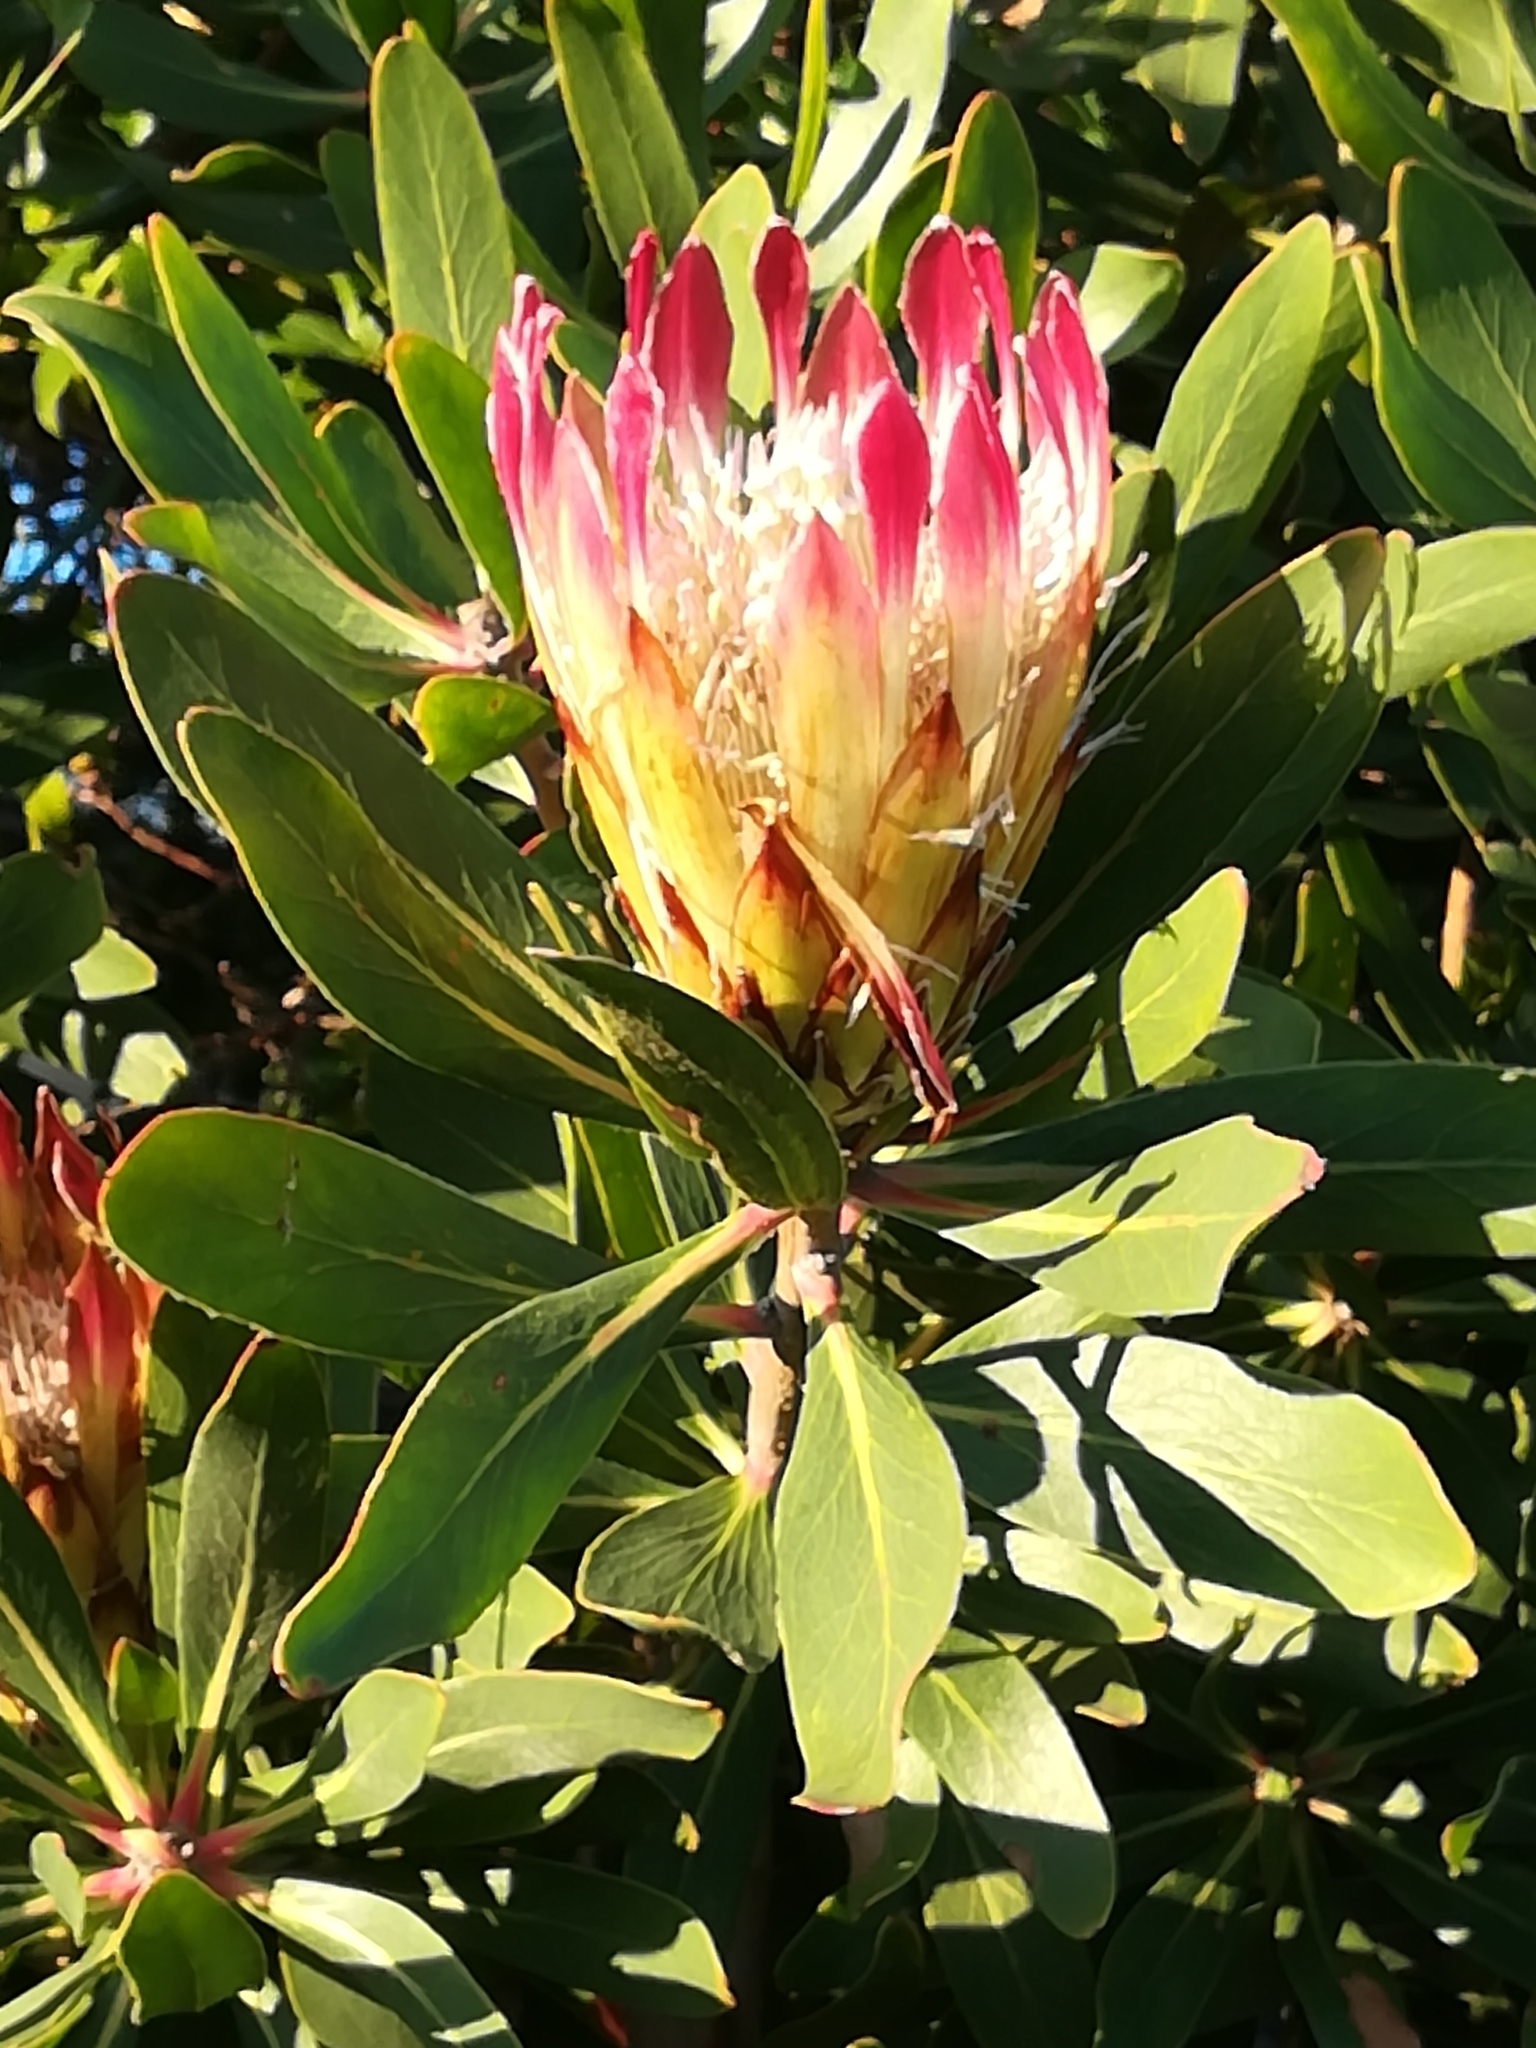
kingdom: Plantae
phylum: Tracheophyta
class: Magnoliopsida
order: Proteales
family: Proteaceae
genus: Protea
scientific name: Protea
